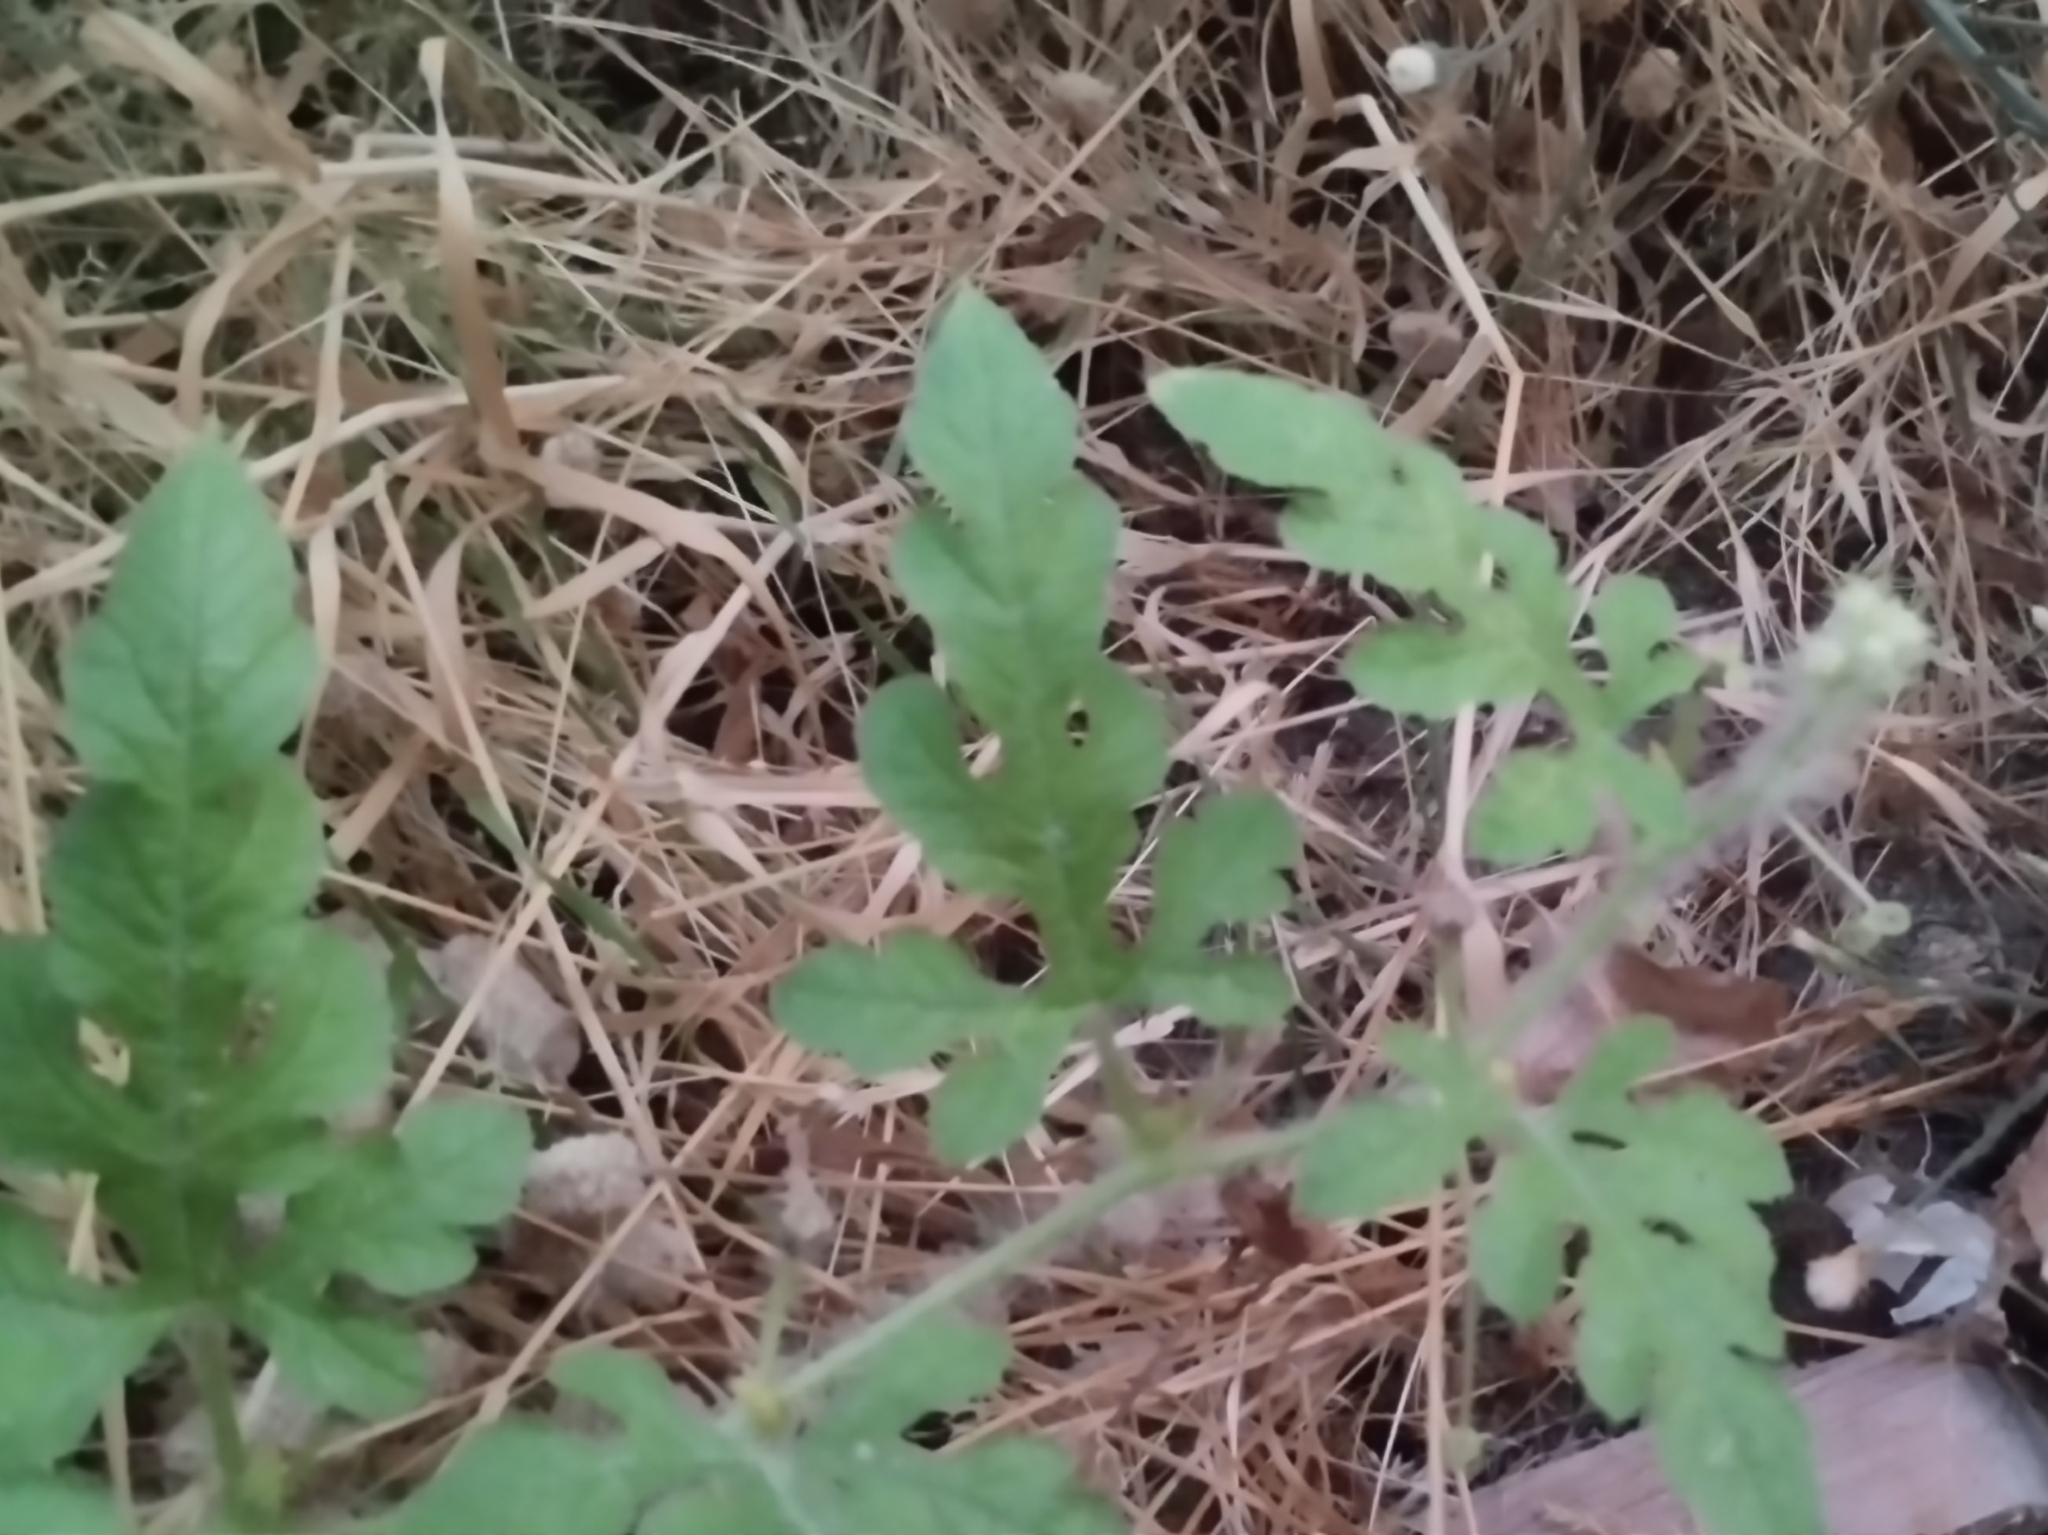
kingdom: Plantae
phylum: Tracheophyta
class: Magnoliopsida
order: Cucurbitales
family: Cucurbitaceae
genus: Citrullus
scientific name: Citrullus lanatus
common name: Watermelon
